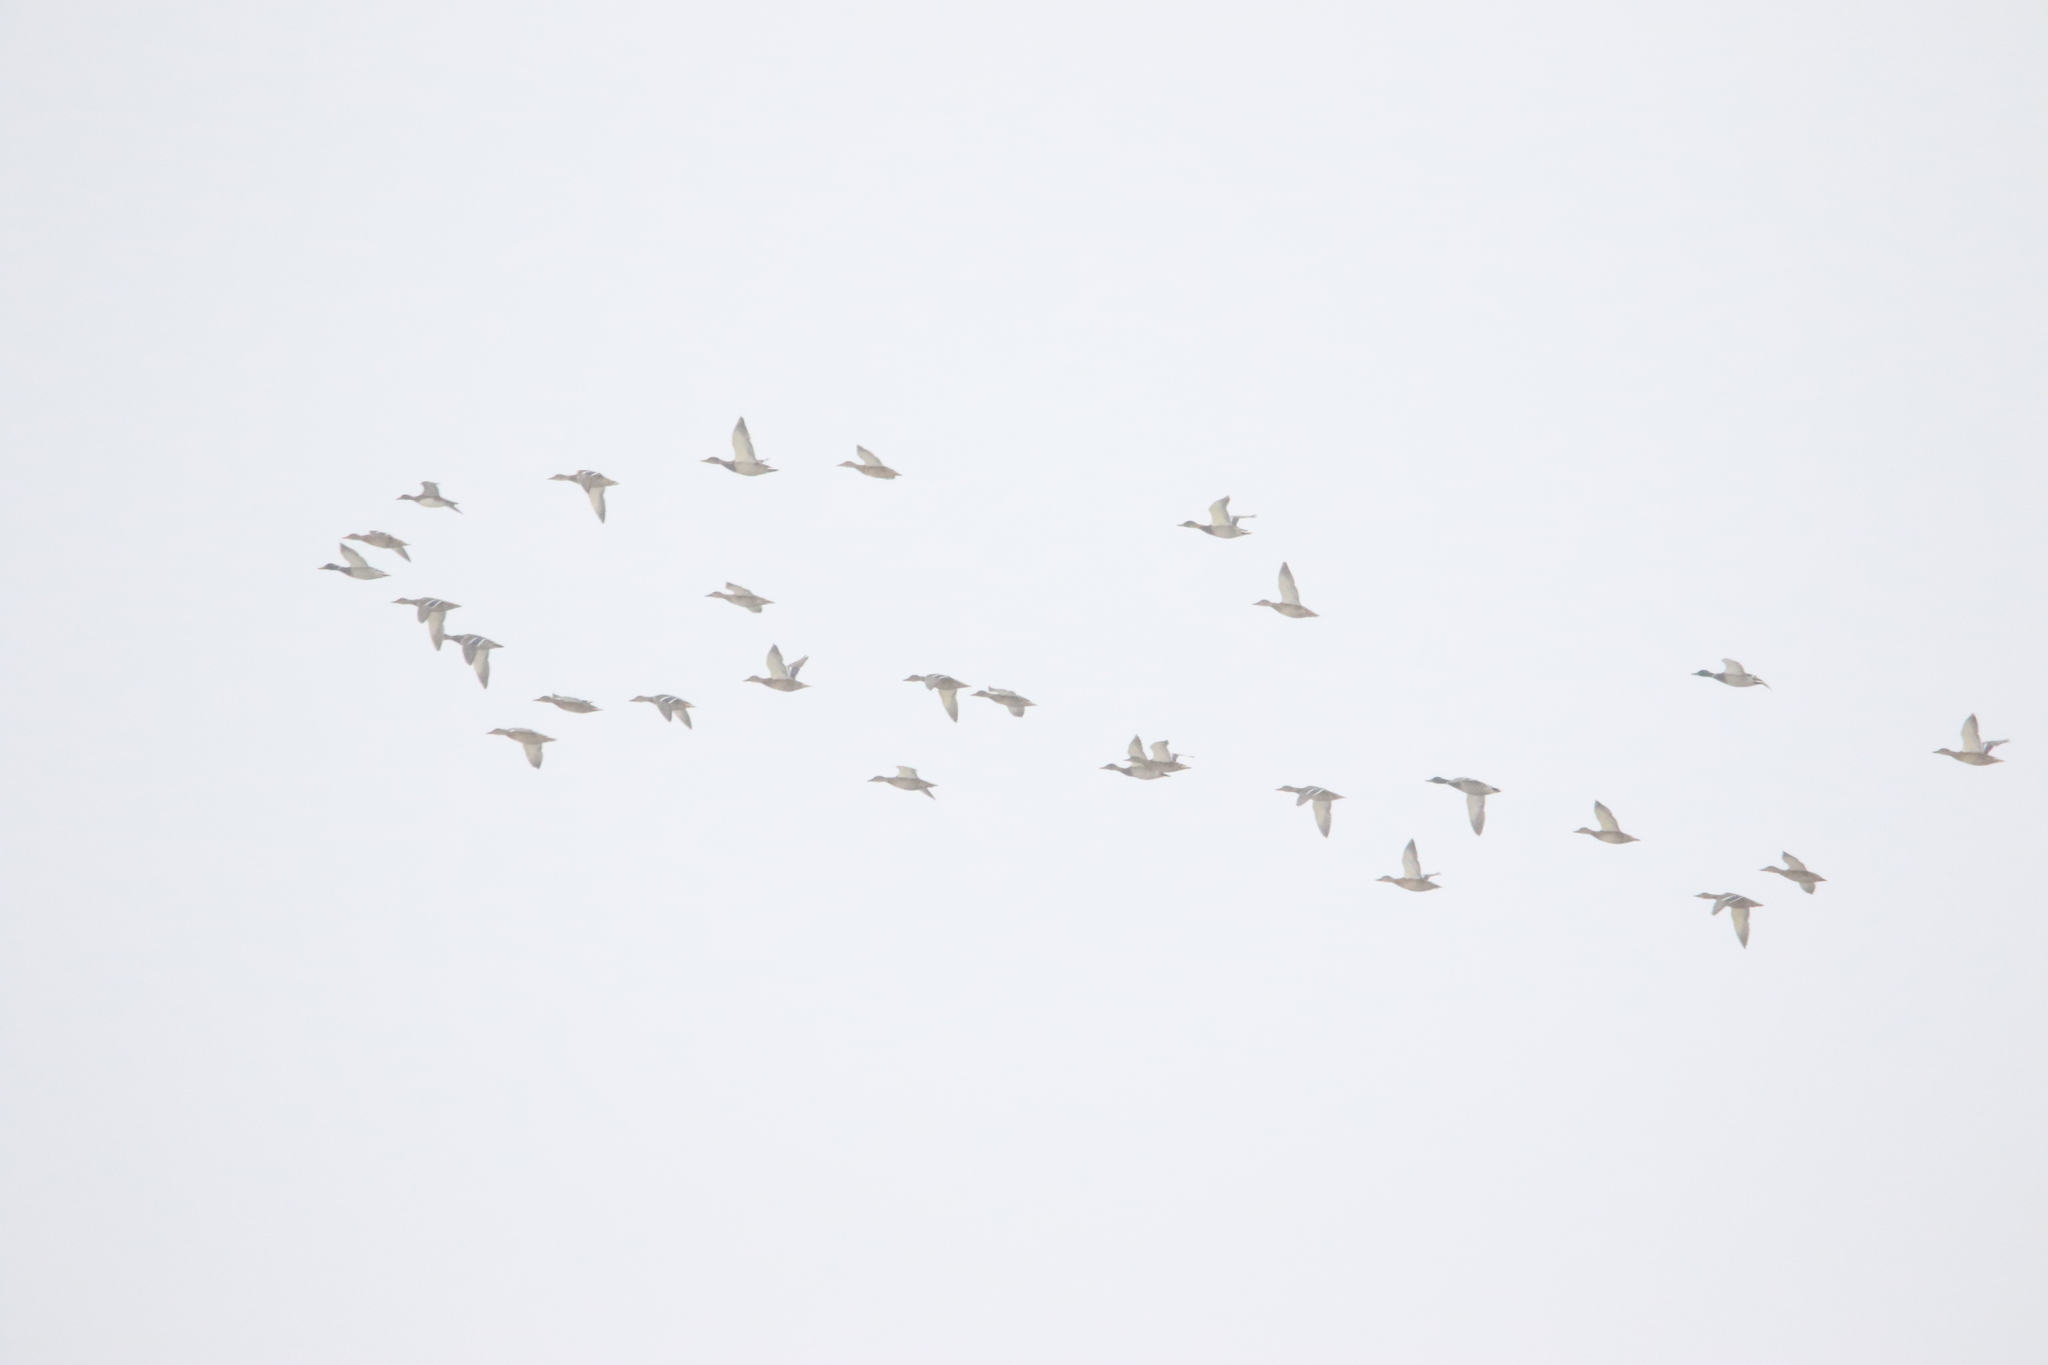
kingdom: Animalia
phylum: Chordata
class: Aves
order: Anseriformes
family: Anatidae
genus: Anas
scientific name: Anas platyrhynchos
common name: Mallard
